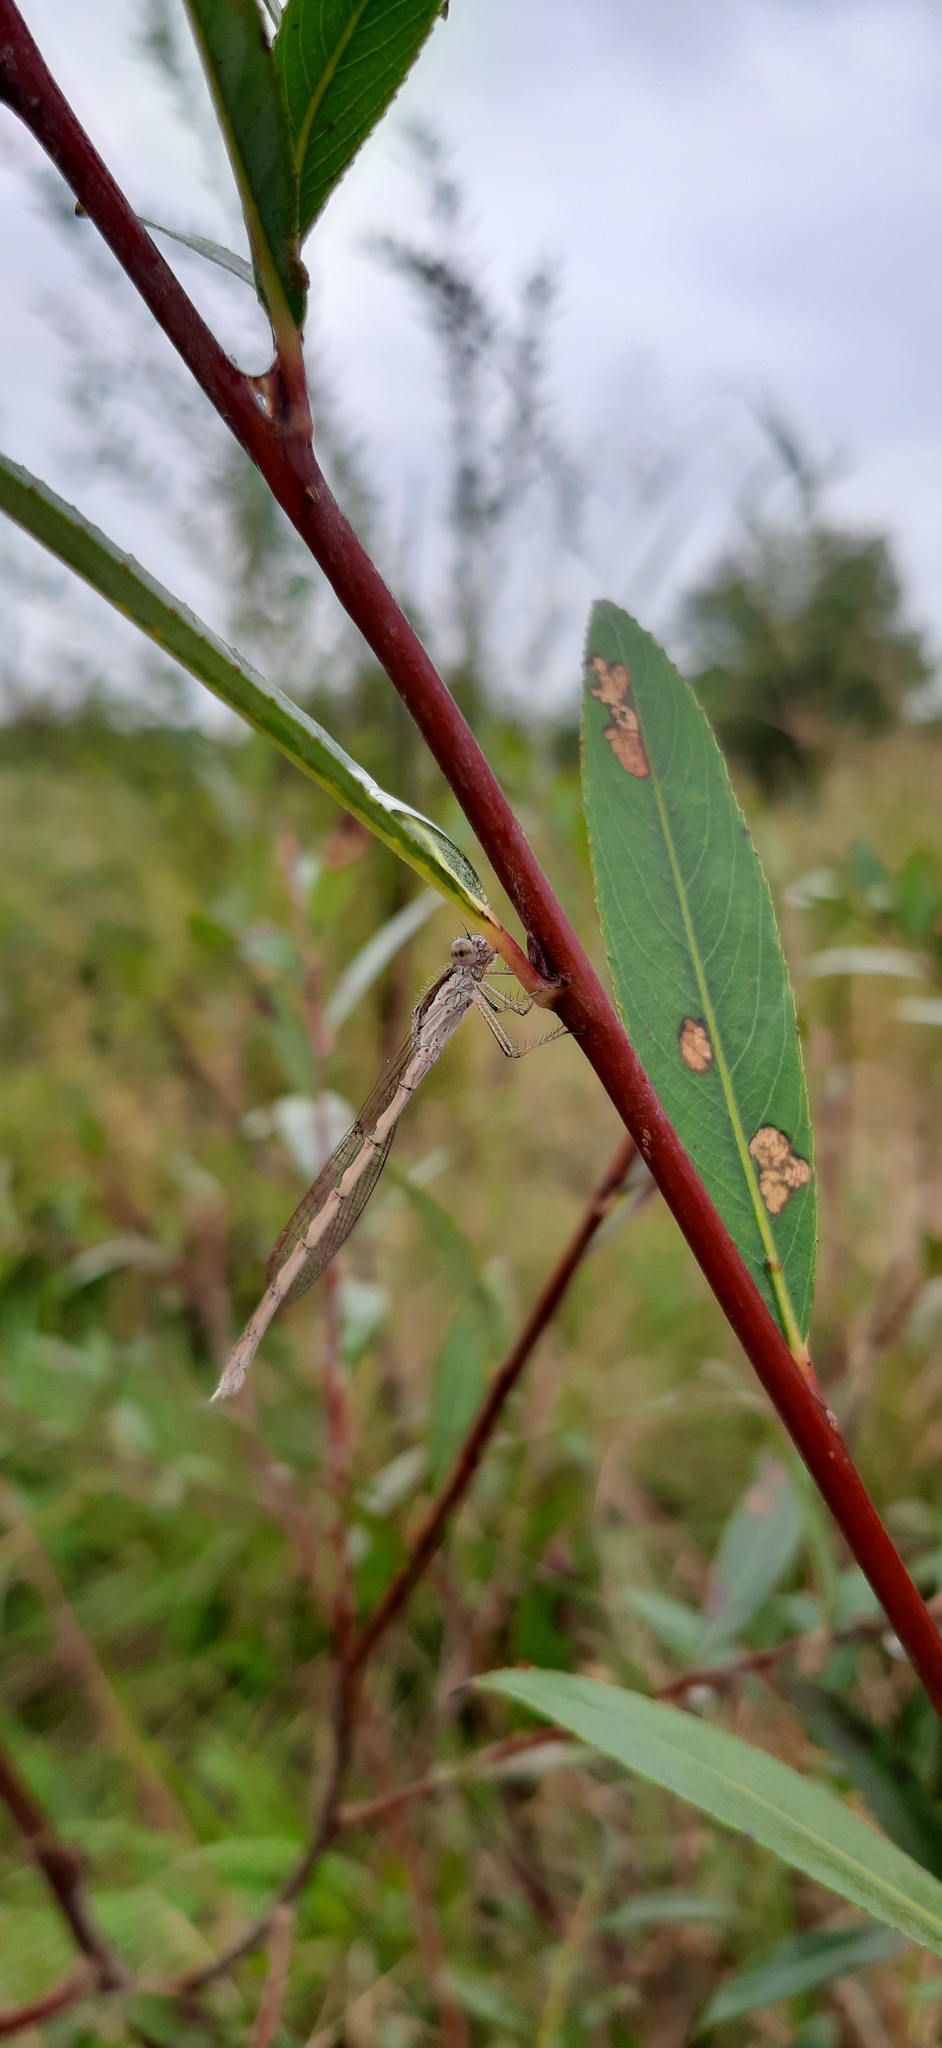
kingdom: Animalia
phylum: Arthropoda
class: Insecta
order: Odonata
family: Lestidae
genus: Sympecma
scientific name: Sympecma fusca
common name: Common winter damsel
